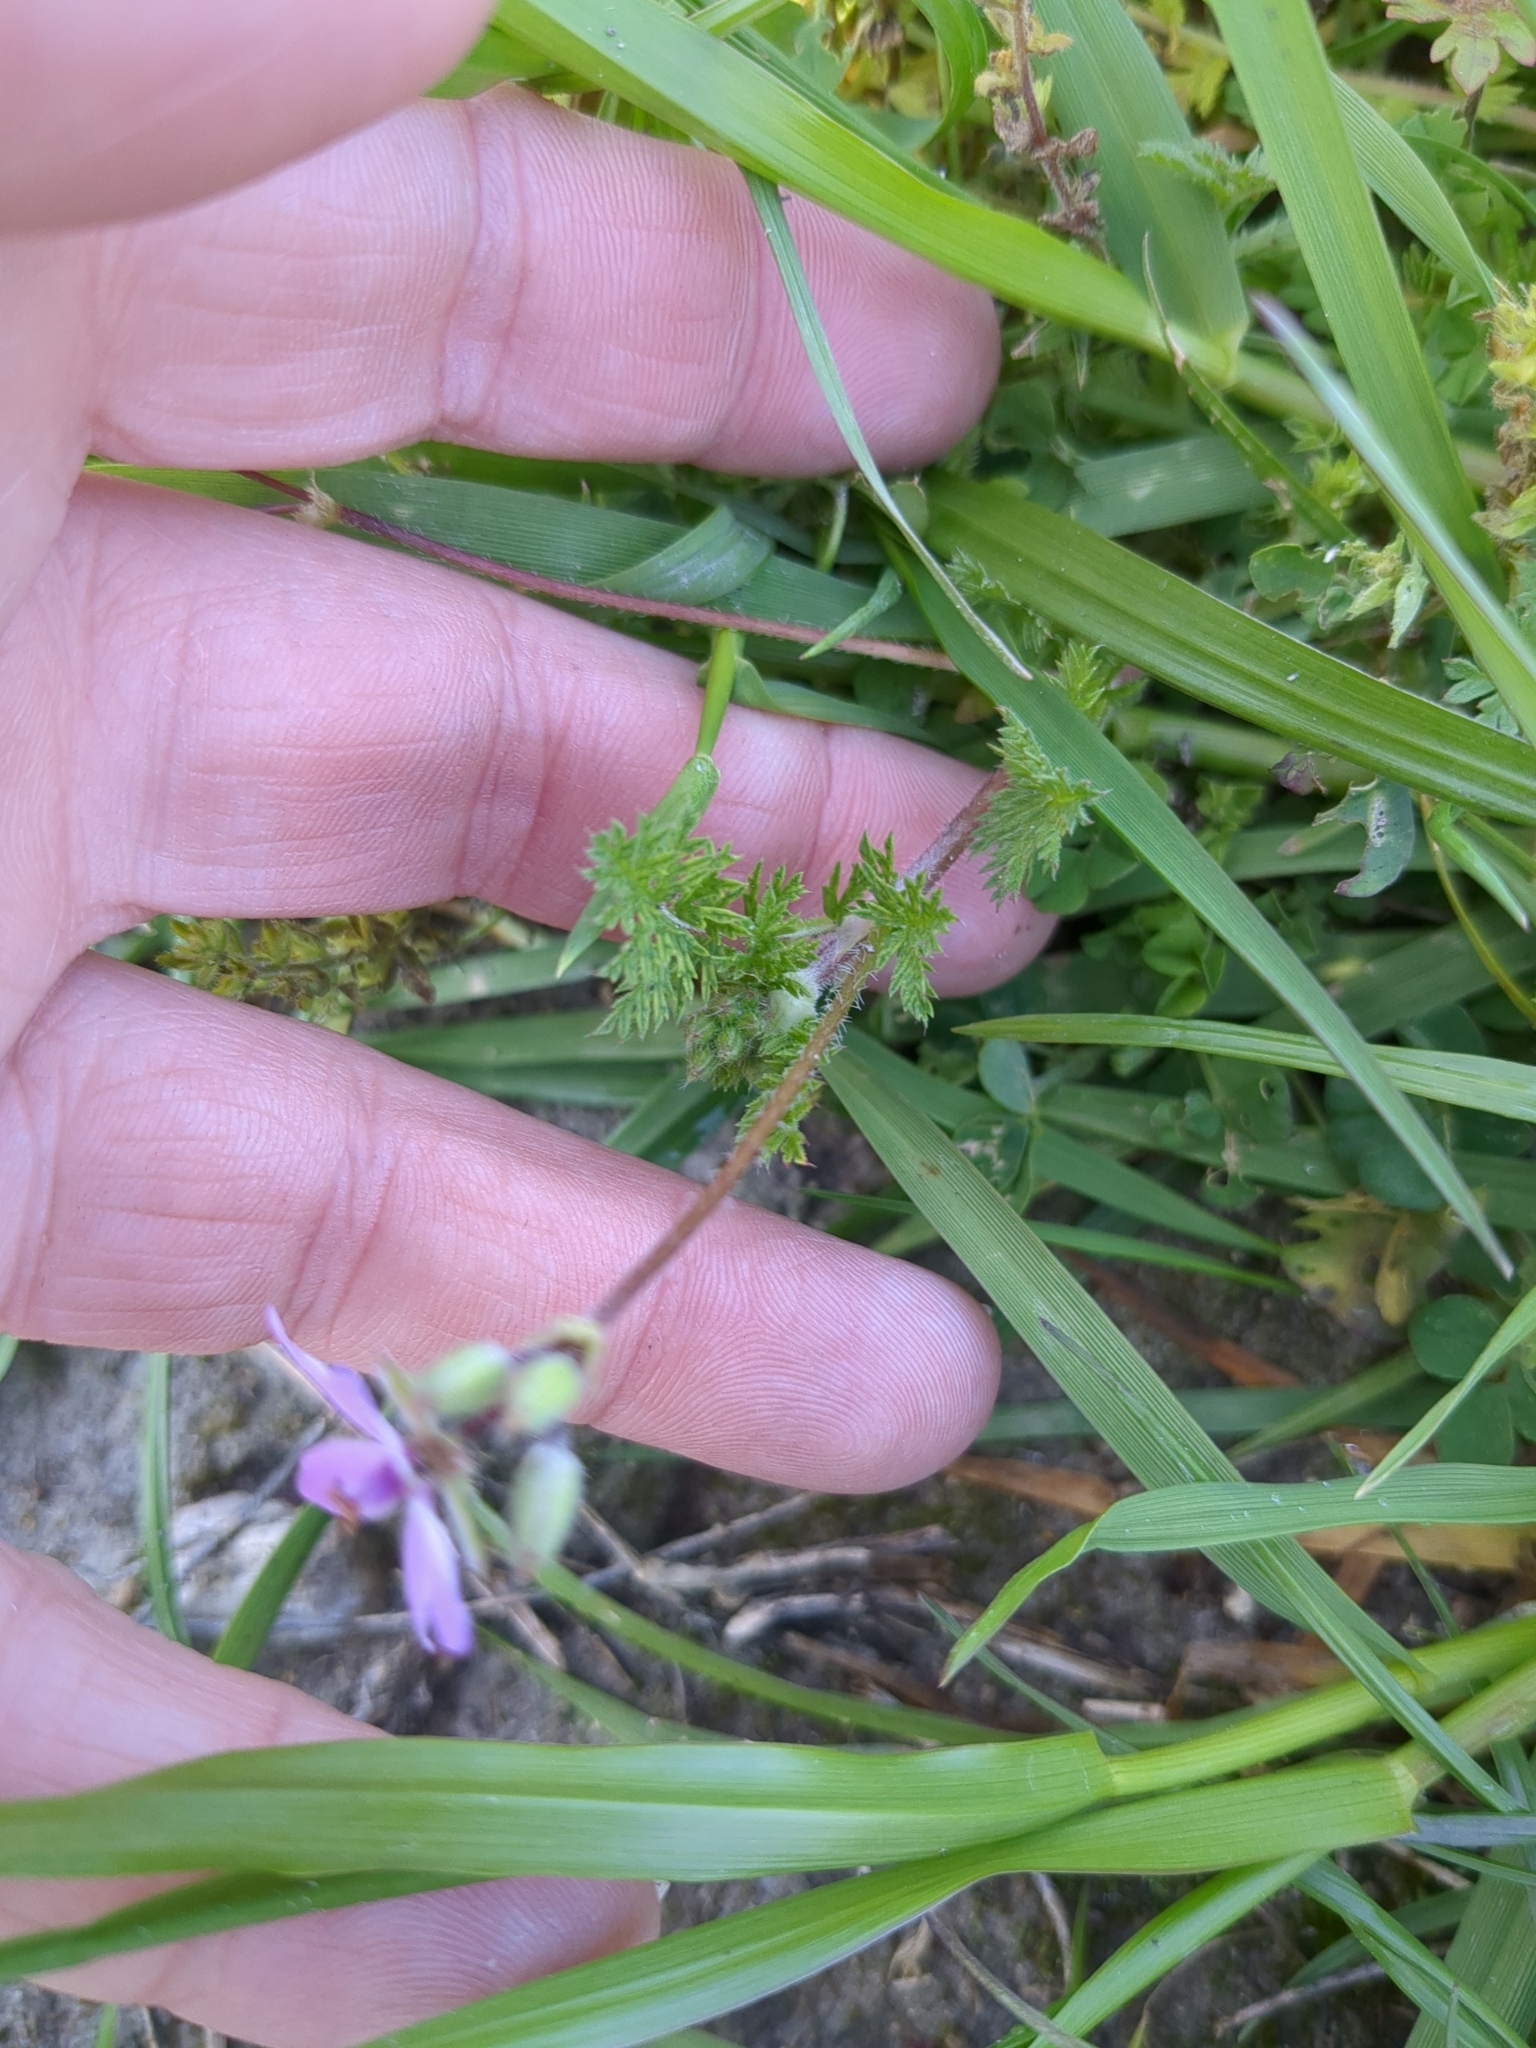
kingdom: Plantae
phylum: Tracheophyta
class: Magnoliopsida
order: Geraniales
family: Geraniaceae
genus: Erodium
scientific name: Erodium cicutarium
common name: Common stork's-bill
